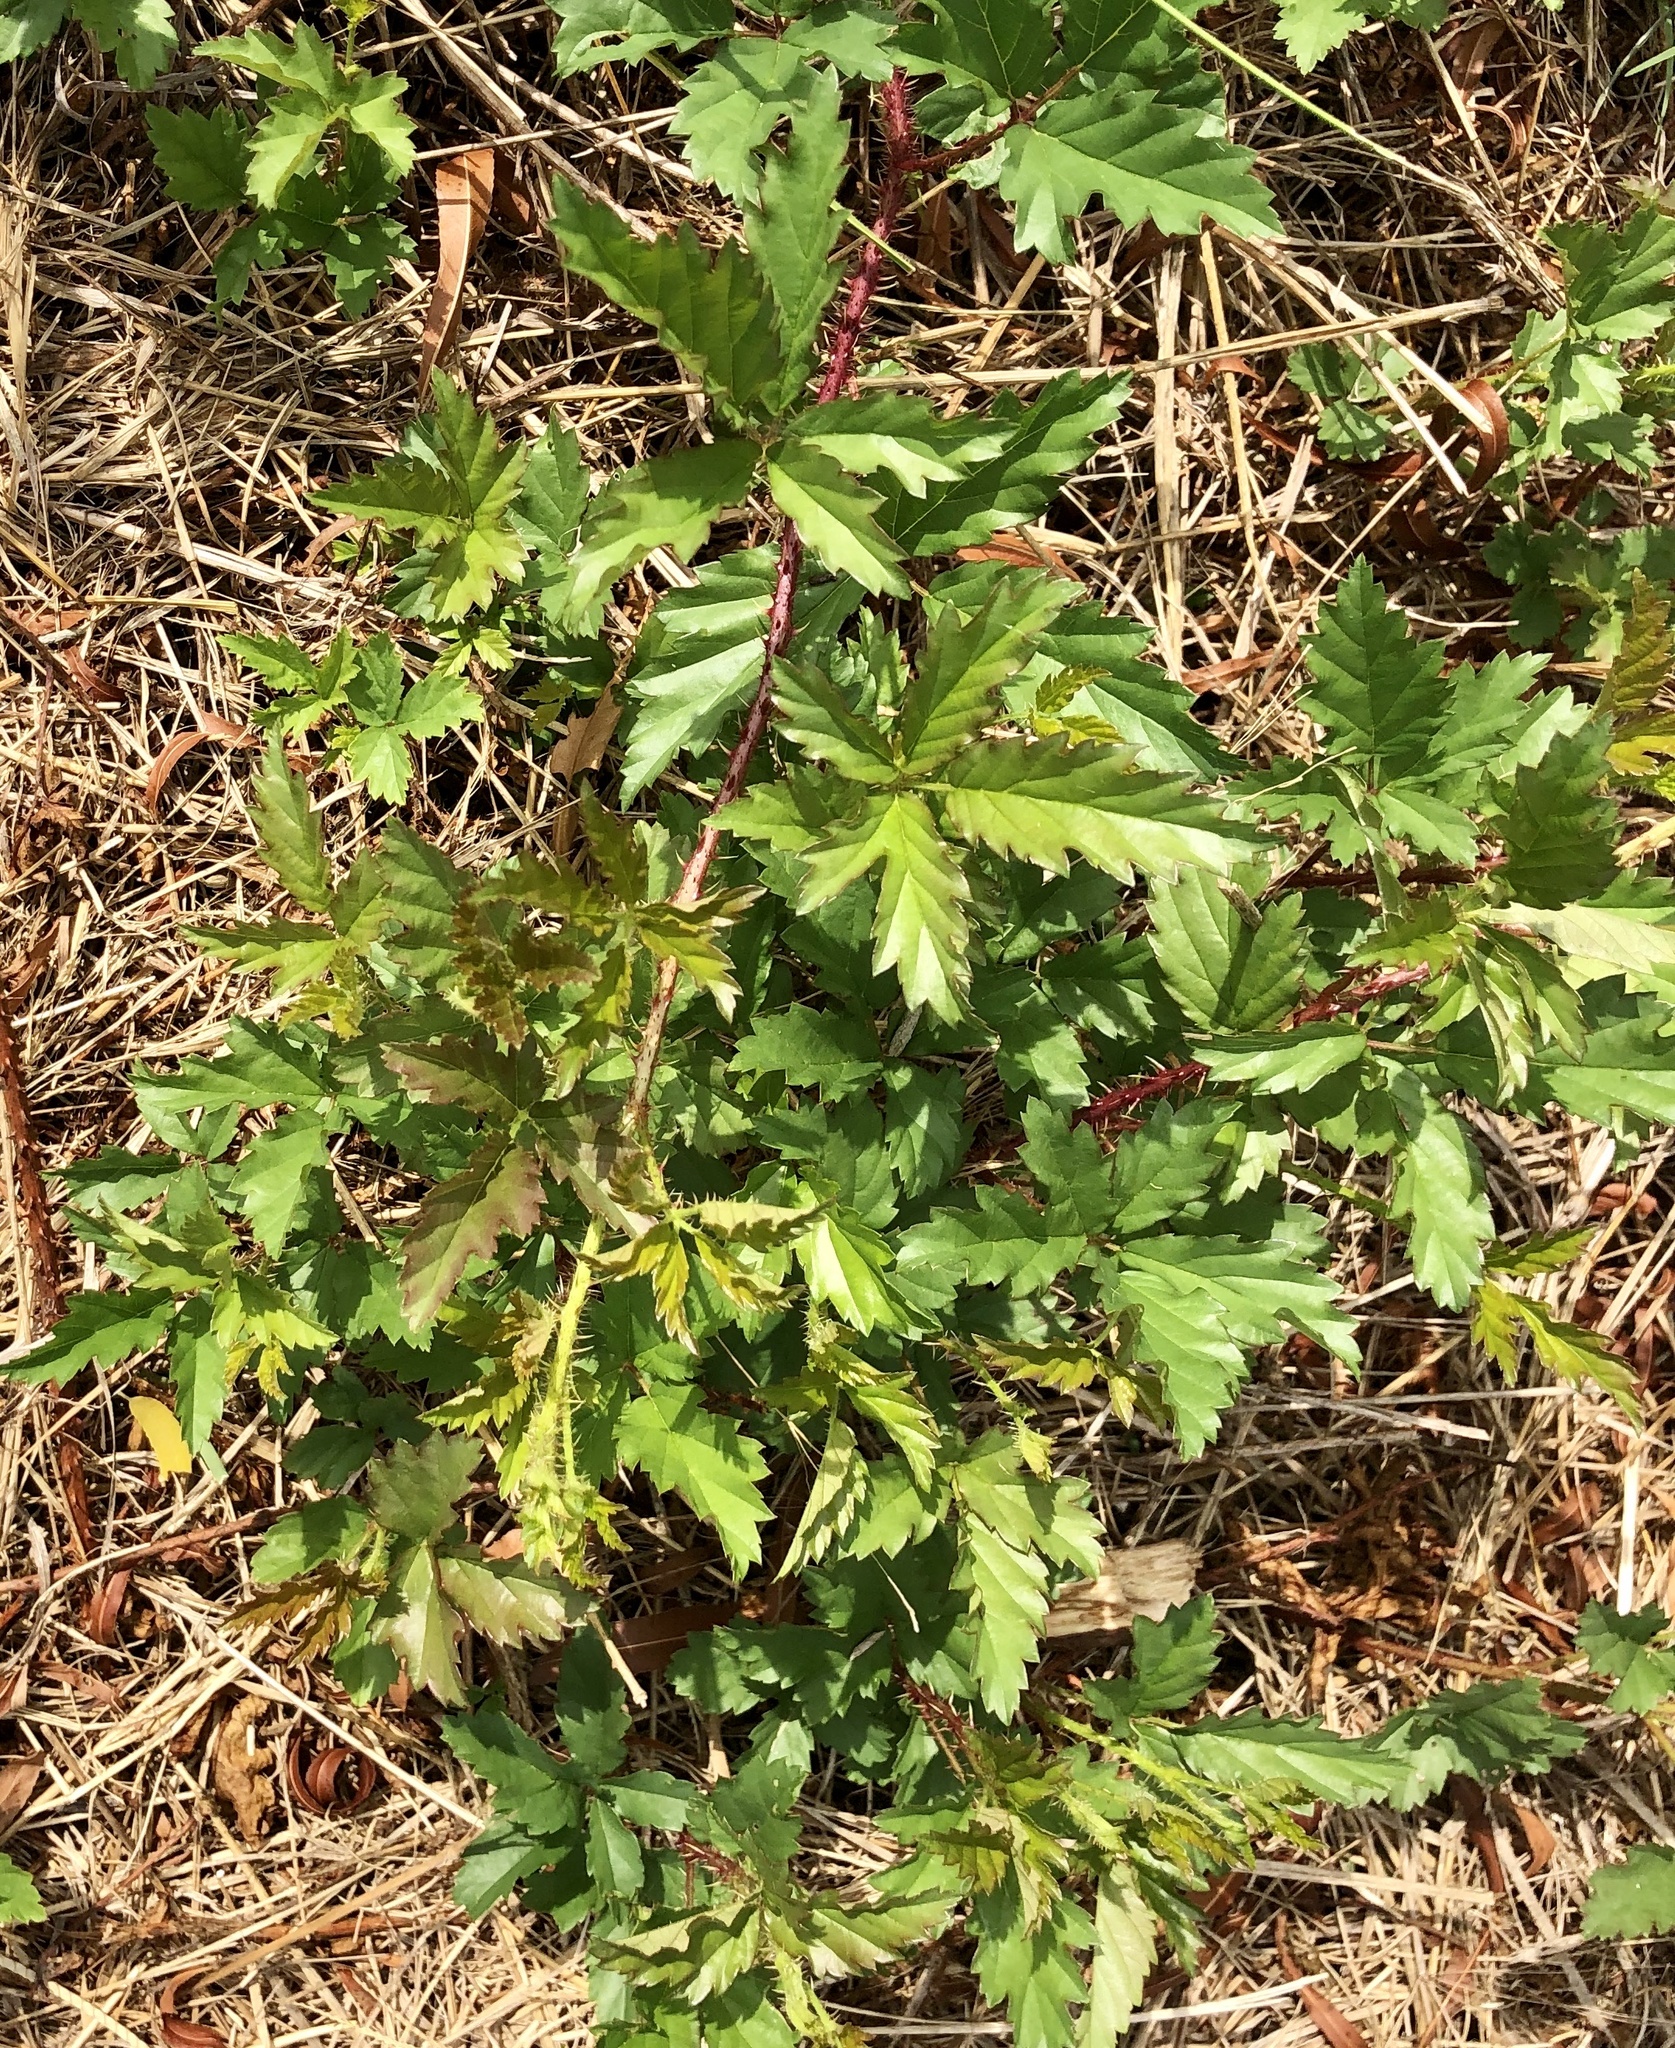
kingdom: Plantae
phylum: Tracheophyta
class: Magnoliopsida
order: Rosales
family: Rosaceae
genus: Rubus
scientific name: Rubus trivialis
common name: Southern dewberry
